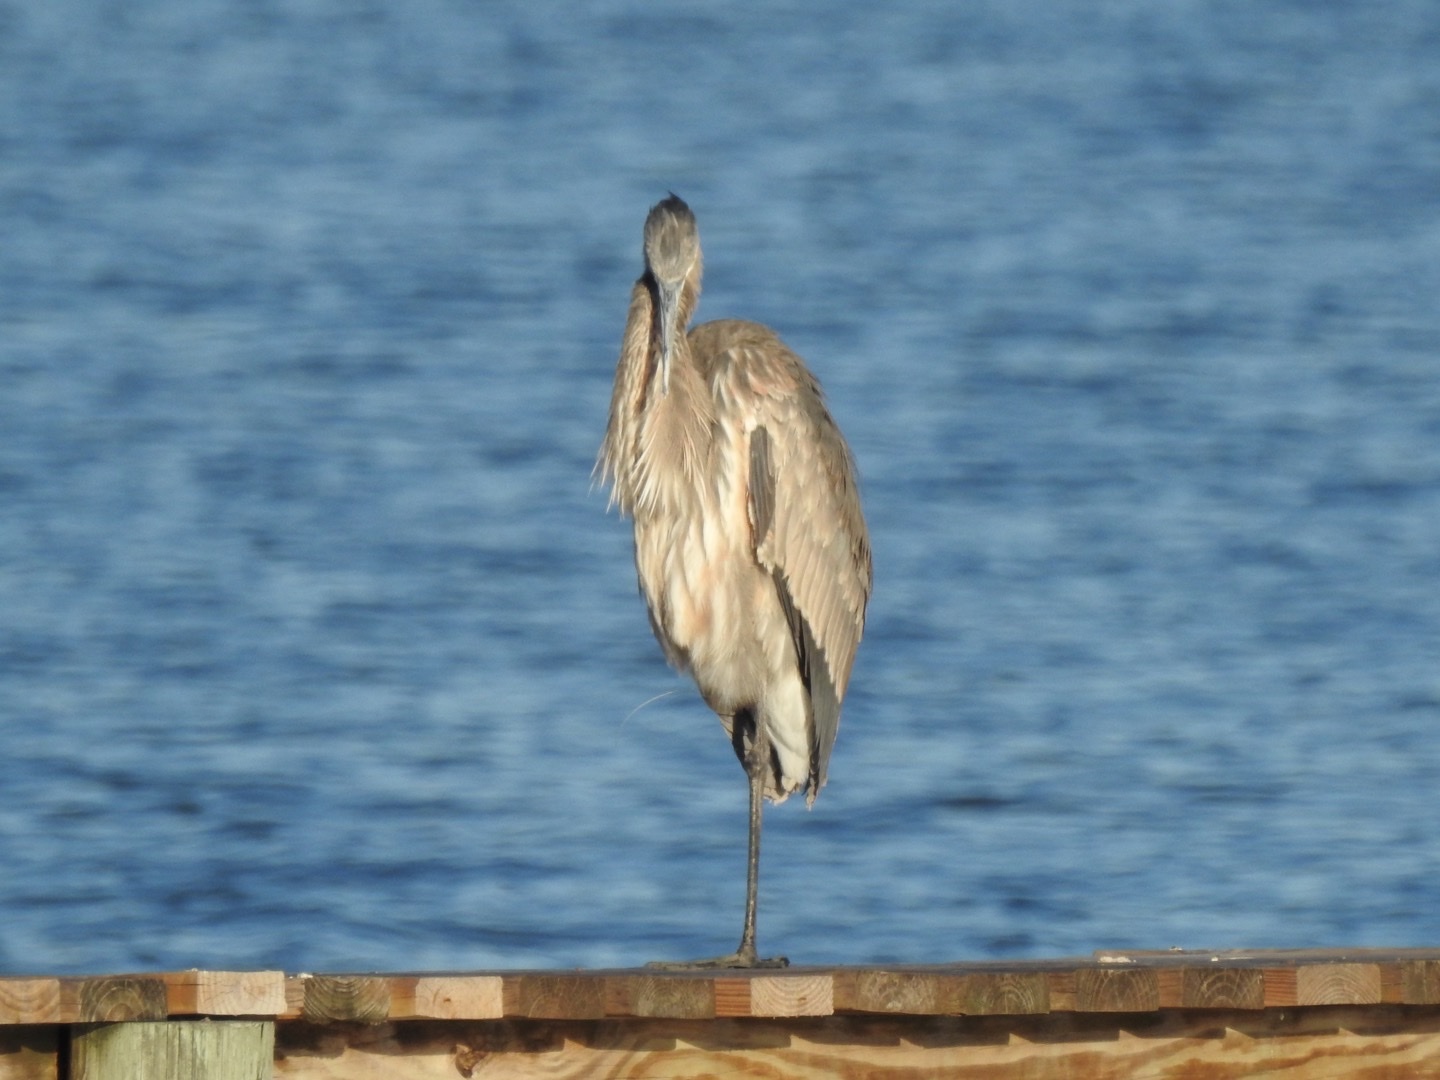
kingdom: Animalia
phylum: Chordata
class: Aves
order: Pelecaniformes
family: Ardeidae
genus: Ardea
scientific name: Ardea herodias
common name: Great blue heron
